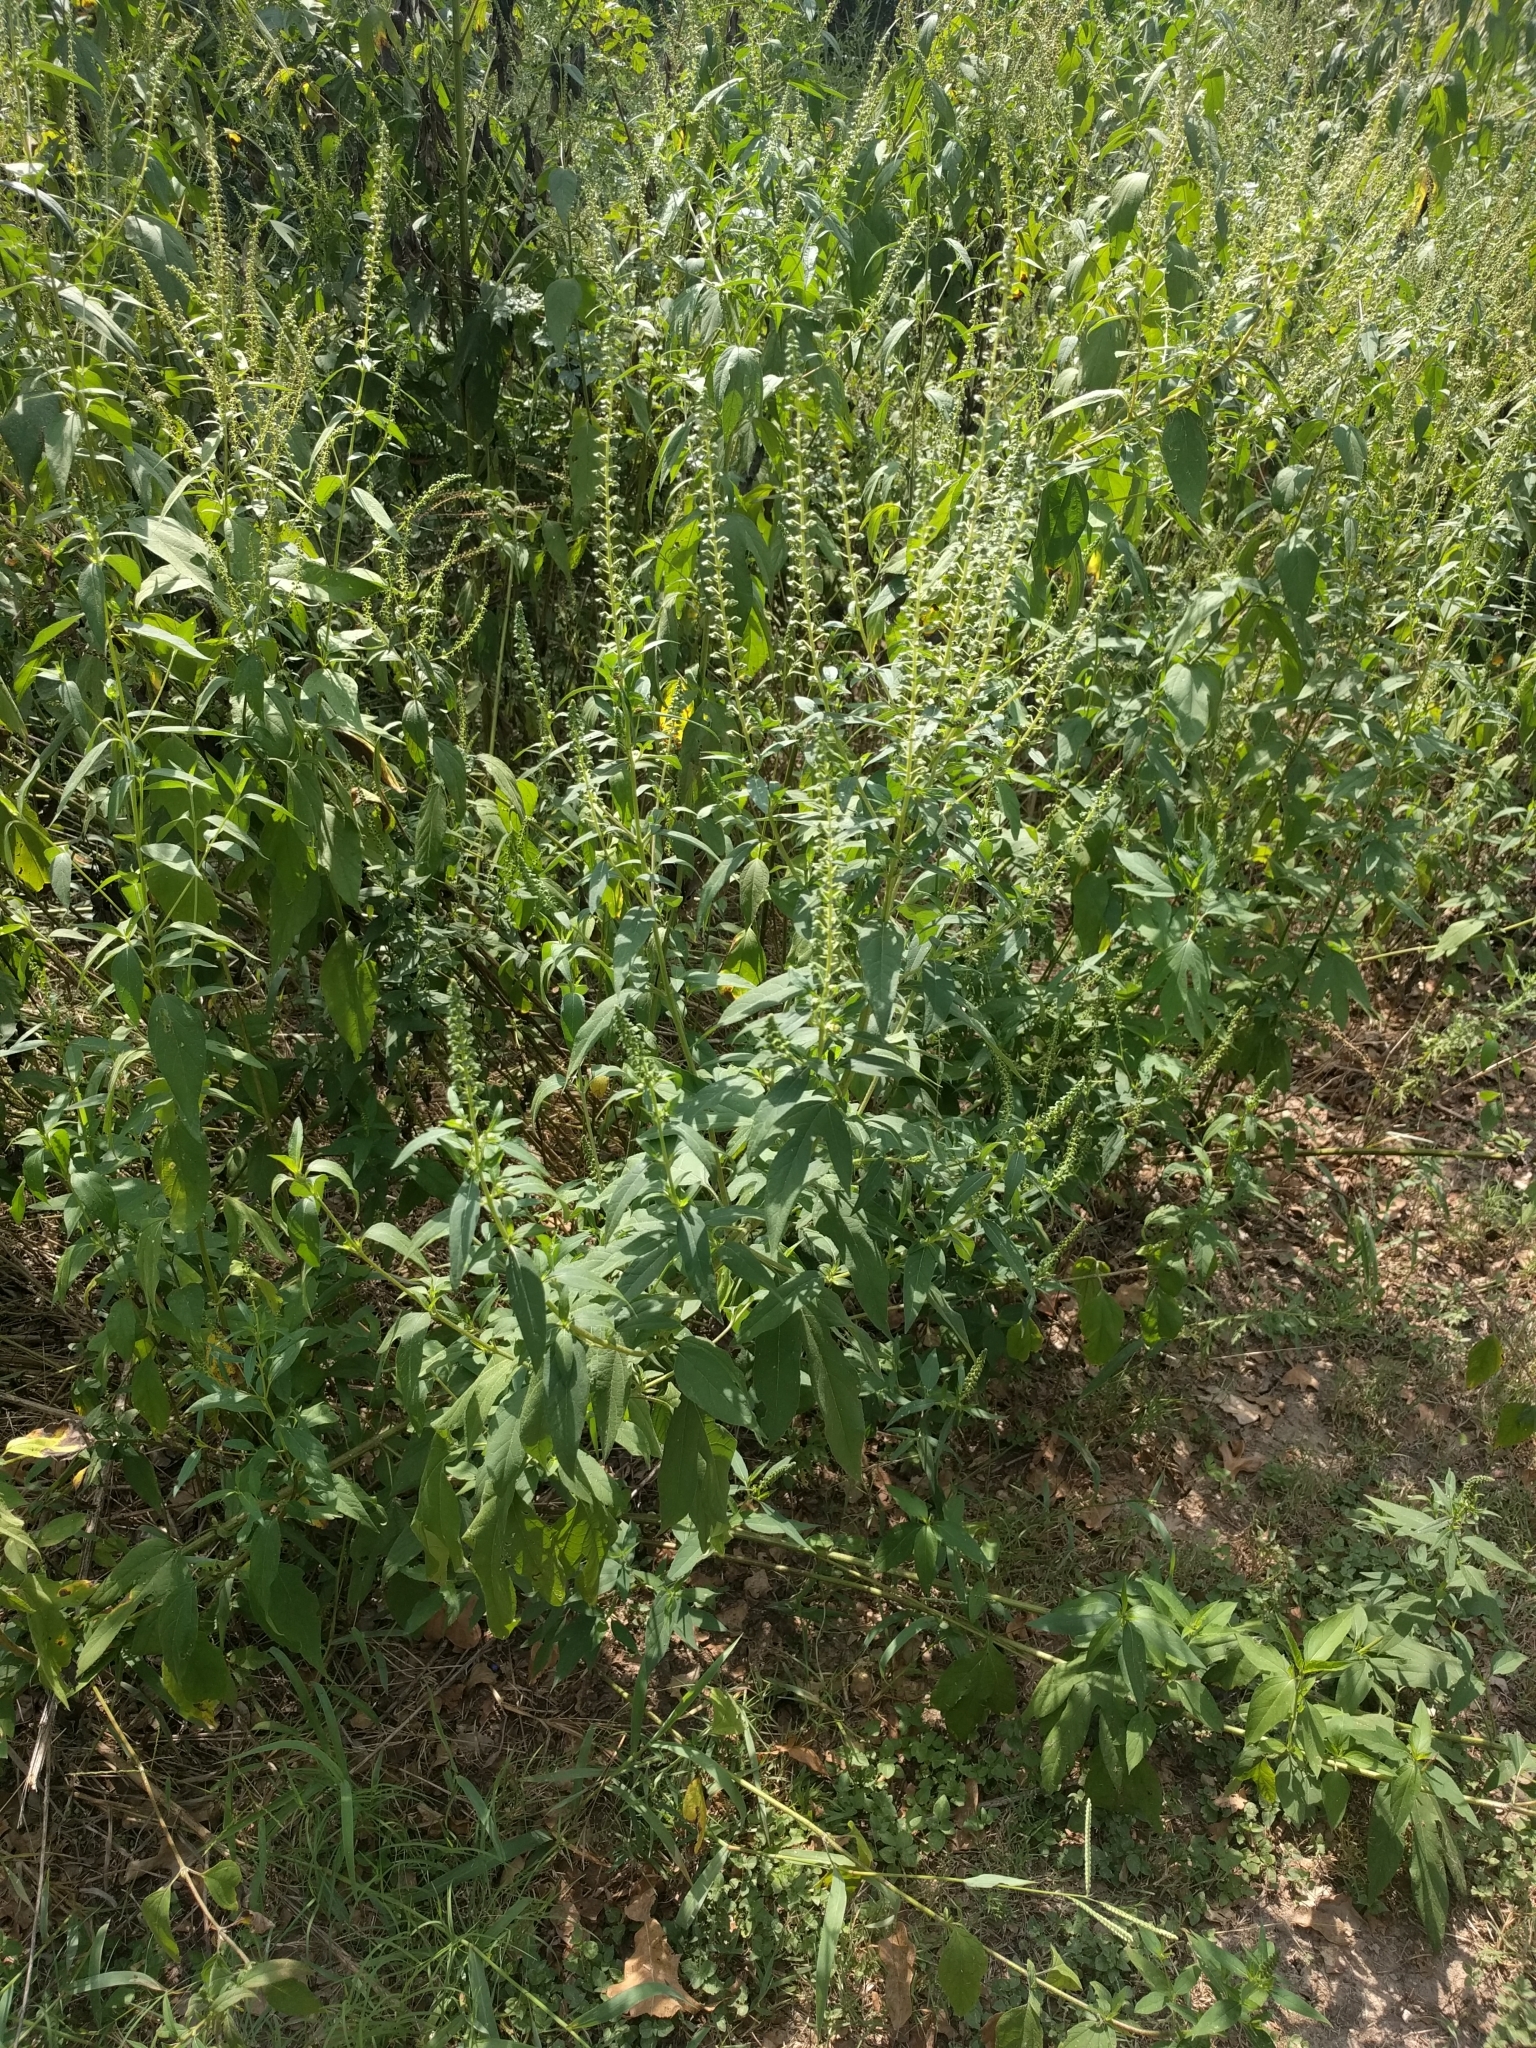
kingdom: Plantae
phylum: Tracheophyta
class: Magnoliopsida
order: Asterales
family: Asteraceae
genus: Ambrosia
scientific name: Ambrosia trifida
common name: Giant ragweed
